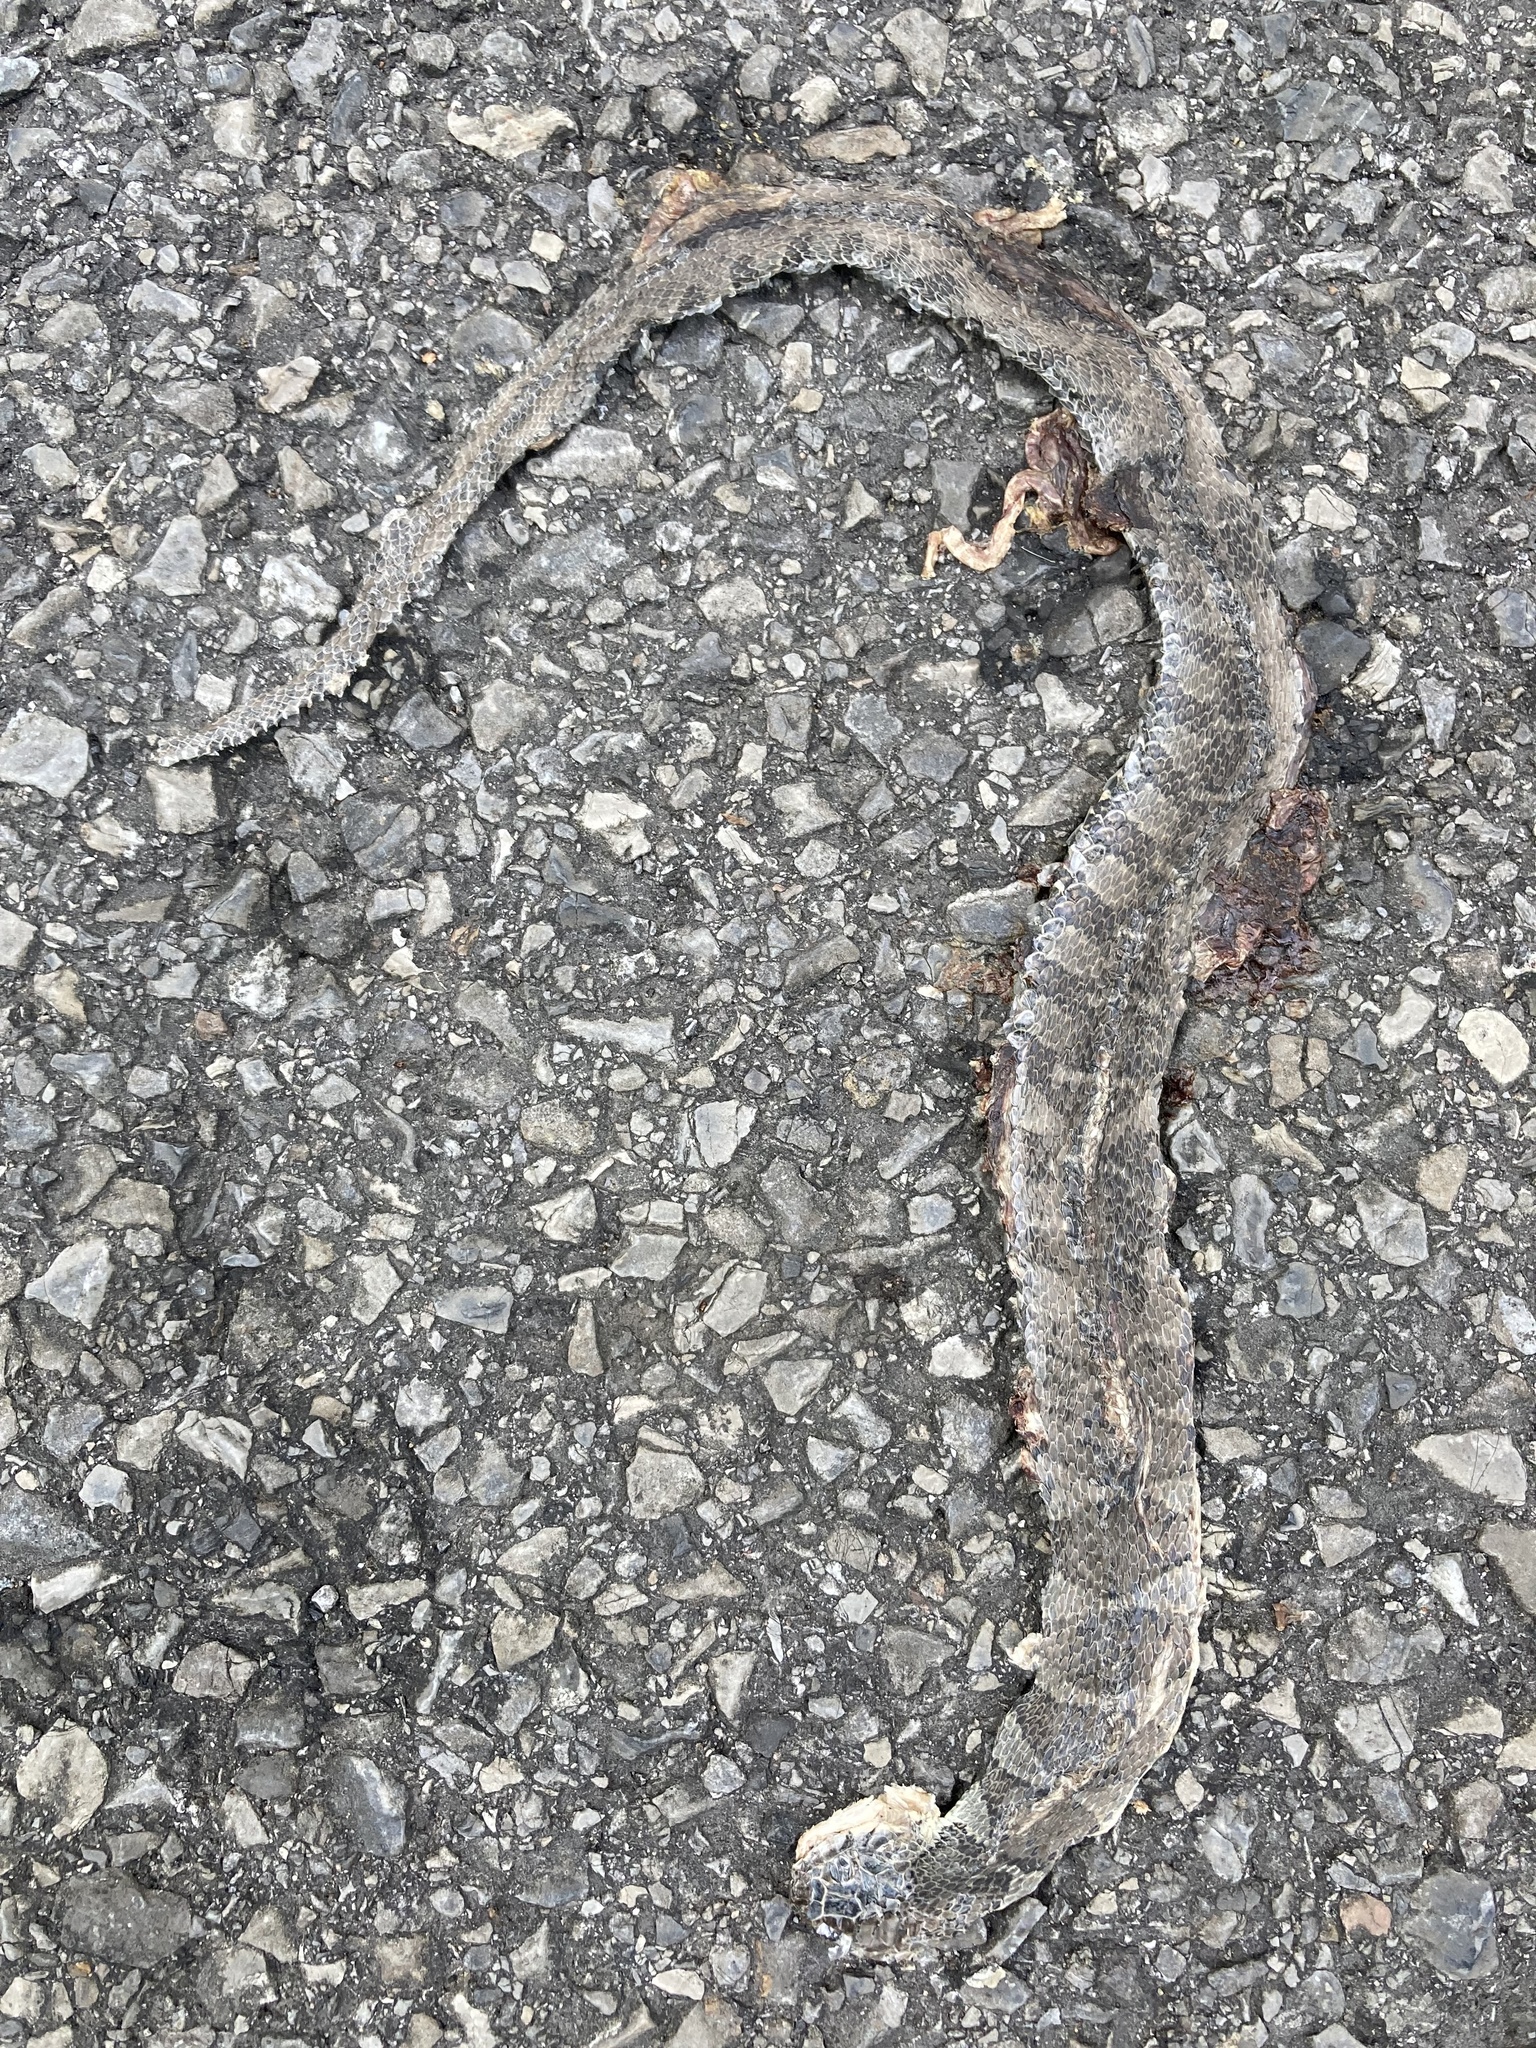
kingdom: Animalia
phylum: Chordata
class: Squamata
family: Colubridae
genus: Nerodia
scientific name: Nerodia sipedon
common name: Northern water snake
